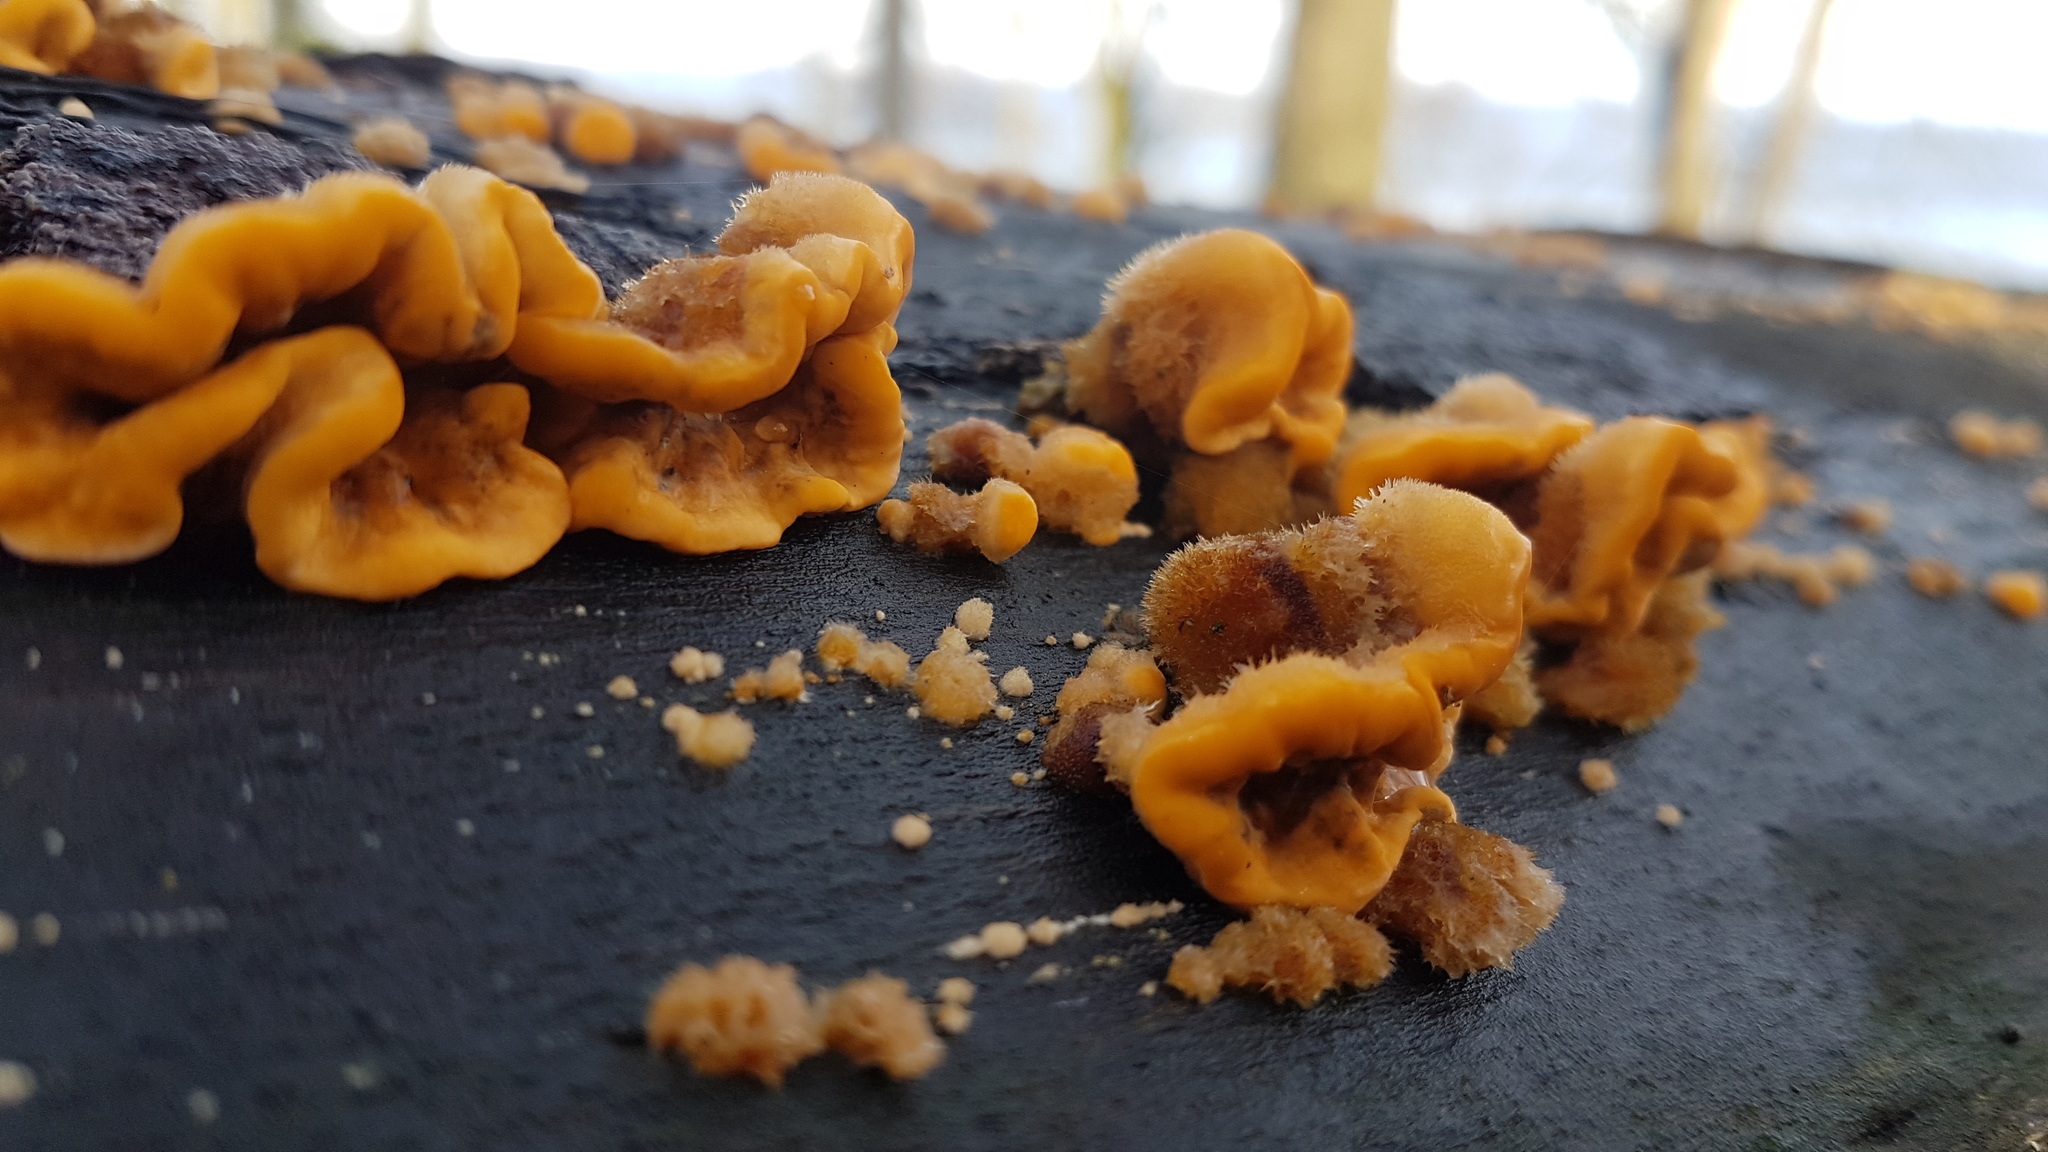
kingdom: Fungi
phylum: Basidiomycota
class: Agaricomycetes
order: Russulales
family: Stereaceae
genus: Stereum
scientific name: Stereum hirsutum
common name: Hairy curtain crust
